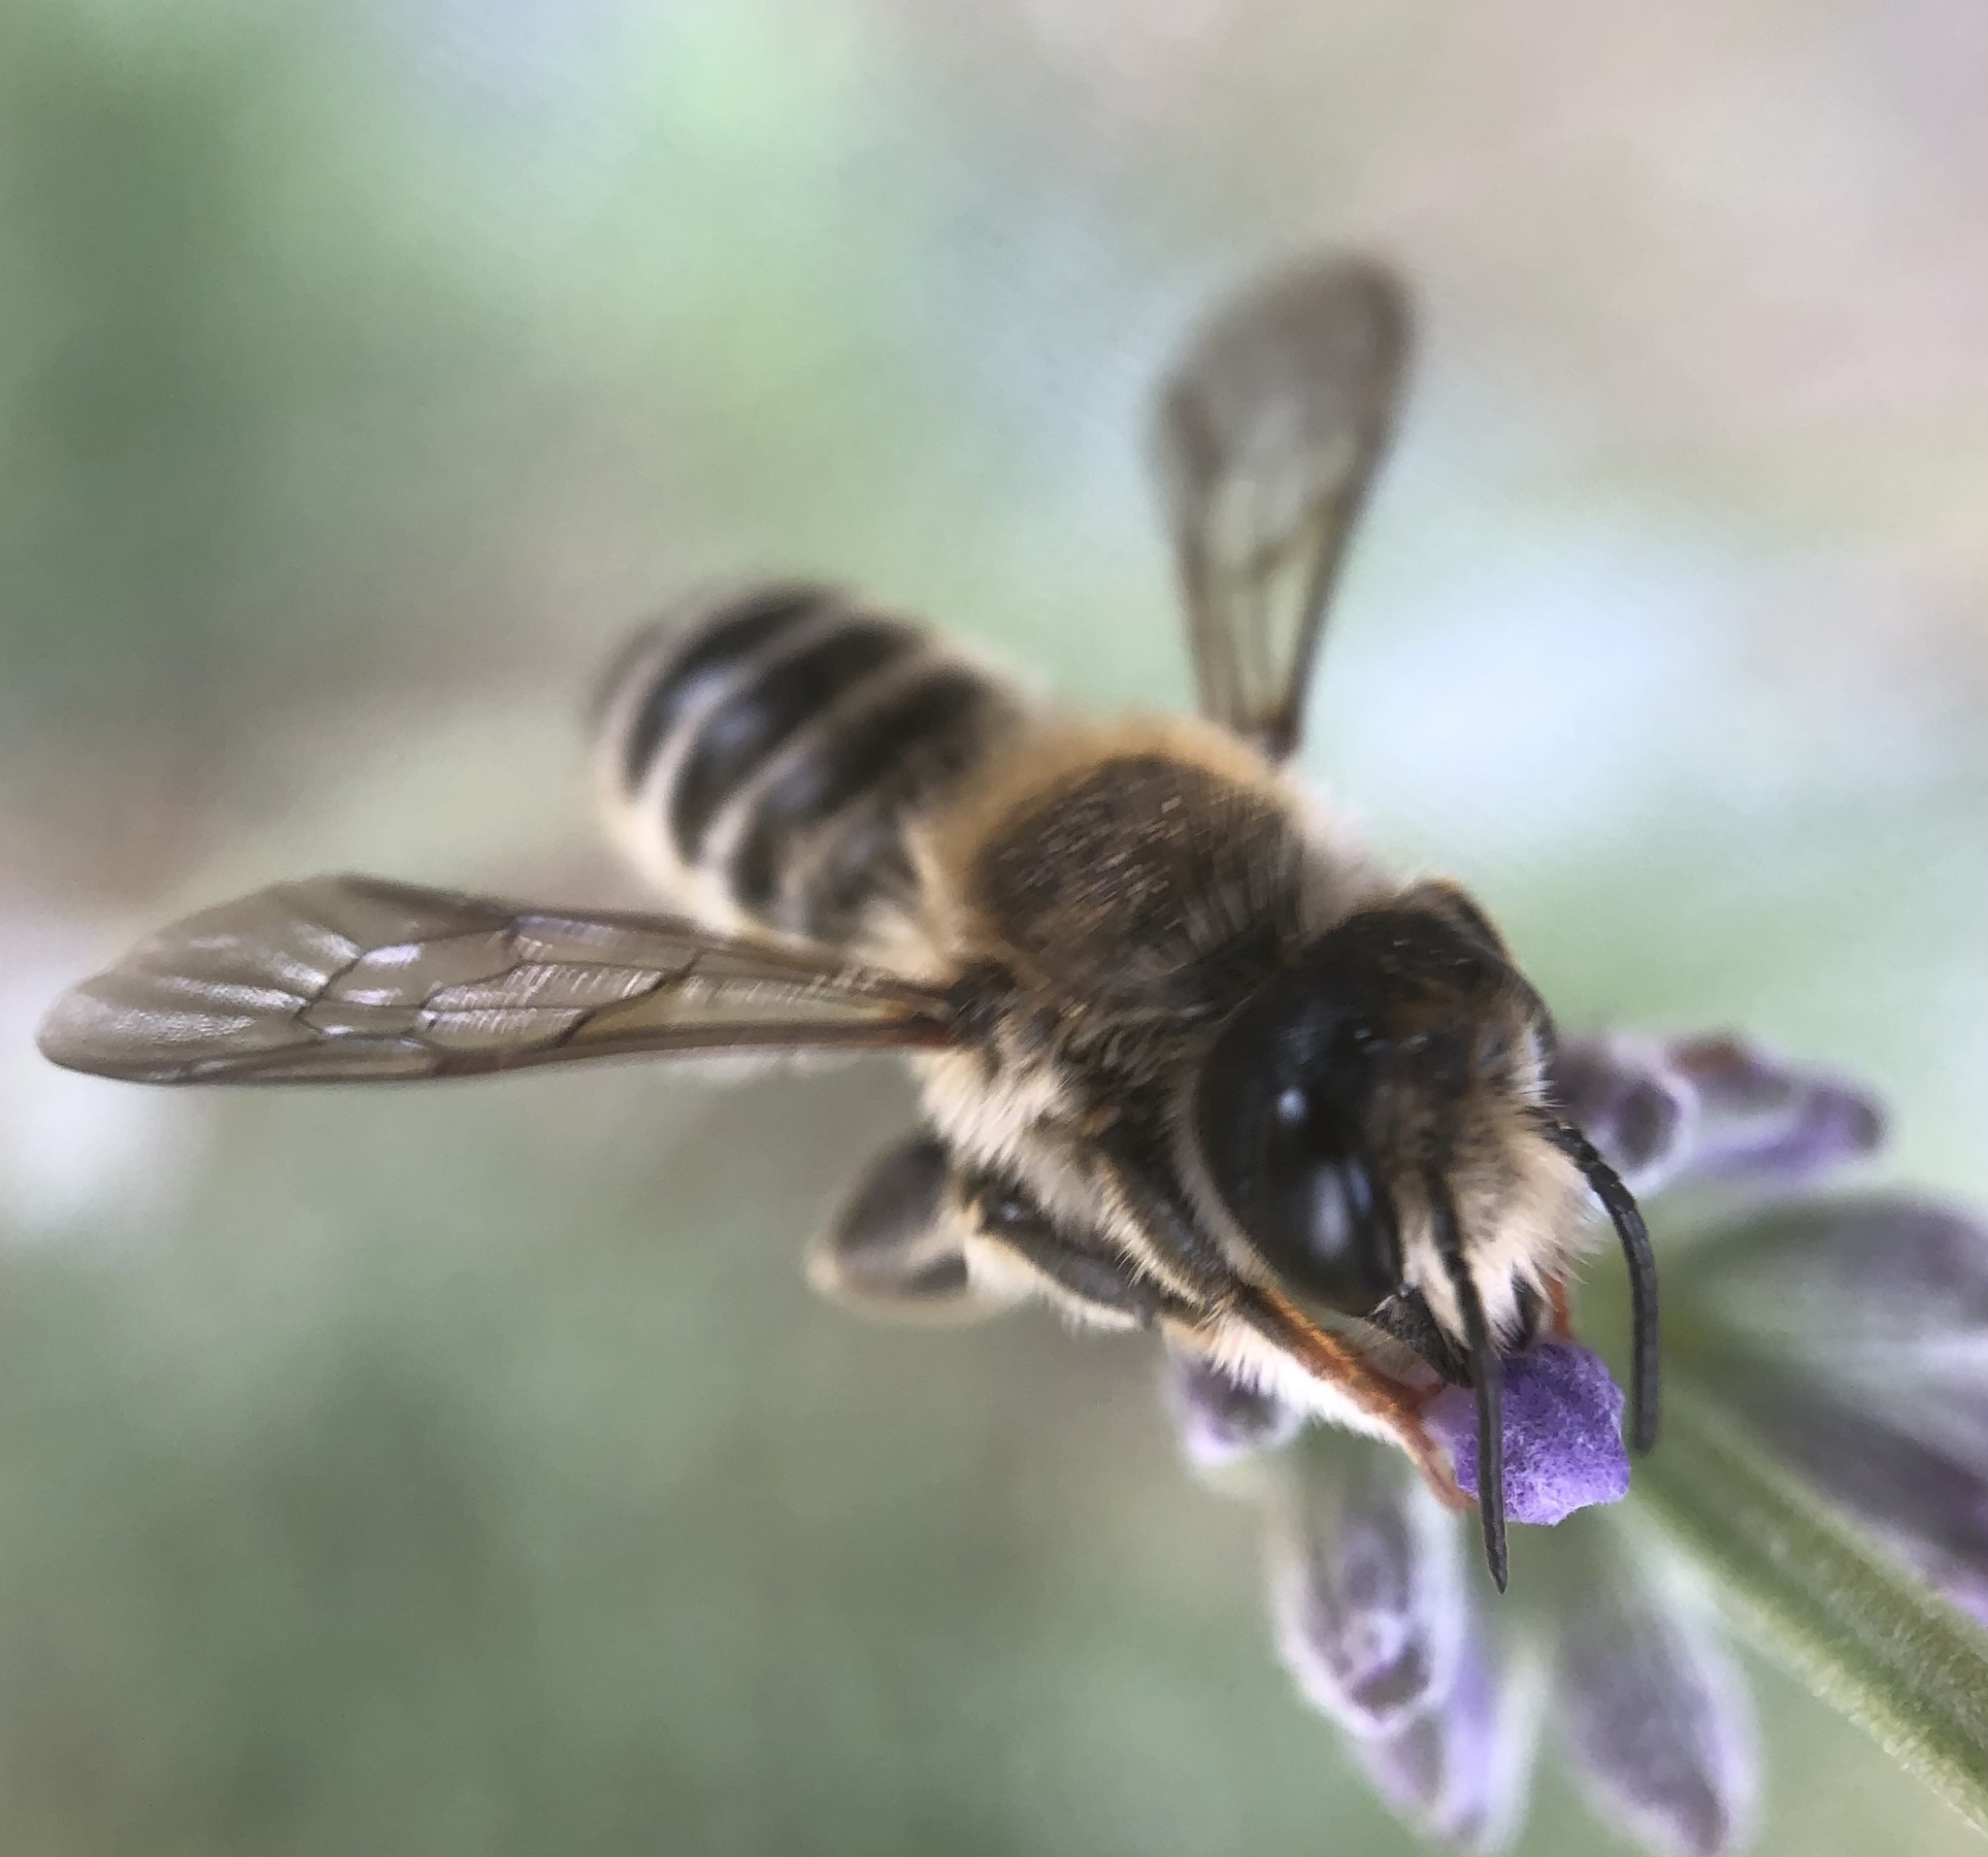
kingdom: Animalia
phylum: Arthropoda
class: Insecta
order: Hymenoptera
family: Megachilidae
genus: Megachile
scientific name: Megachile ericetorum
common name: Leafcutter bee
